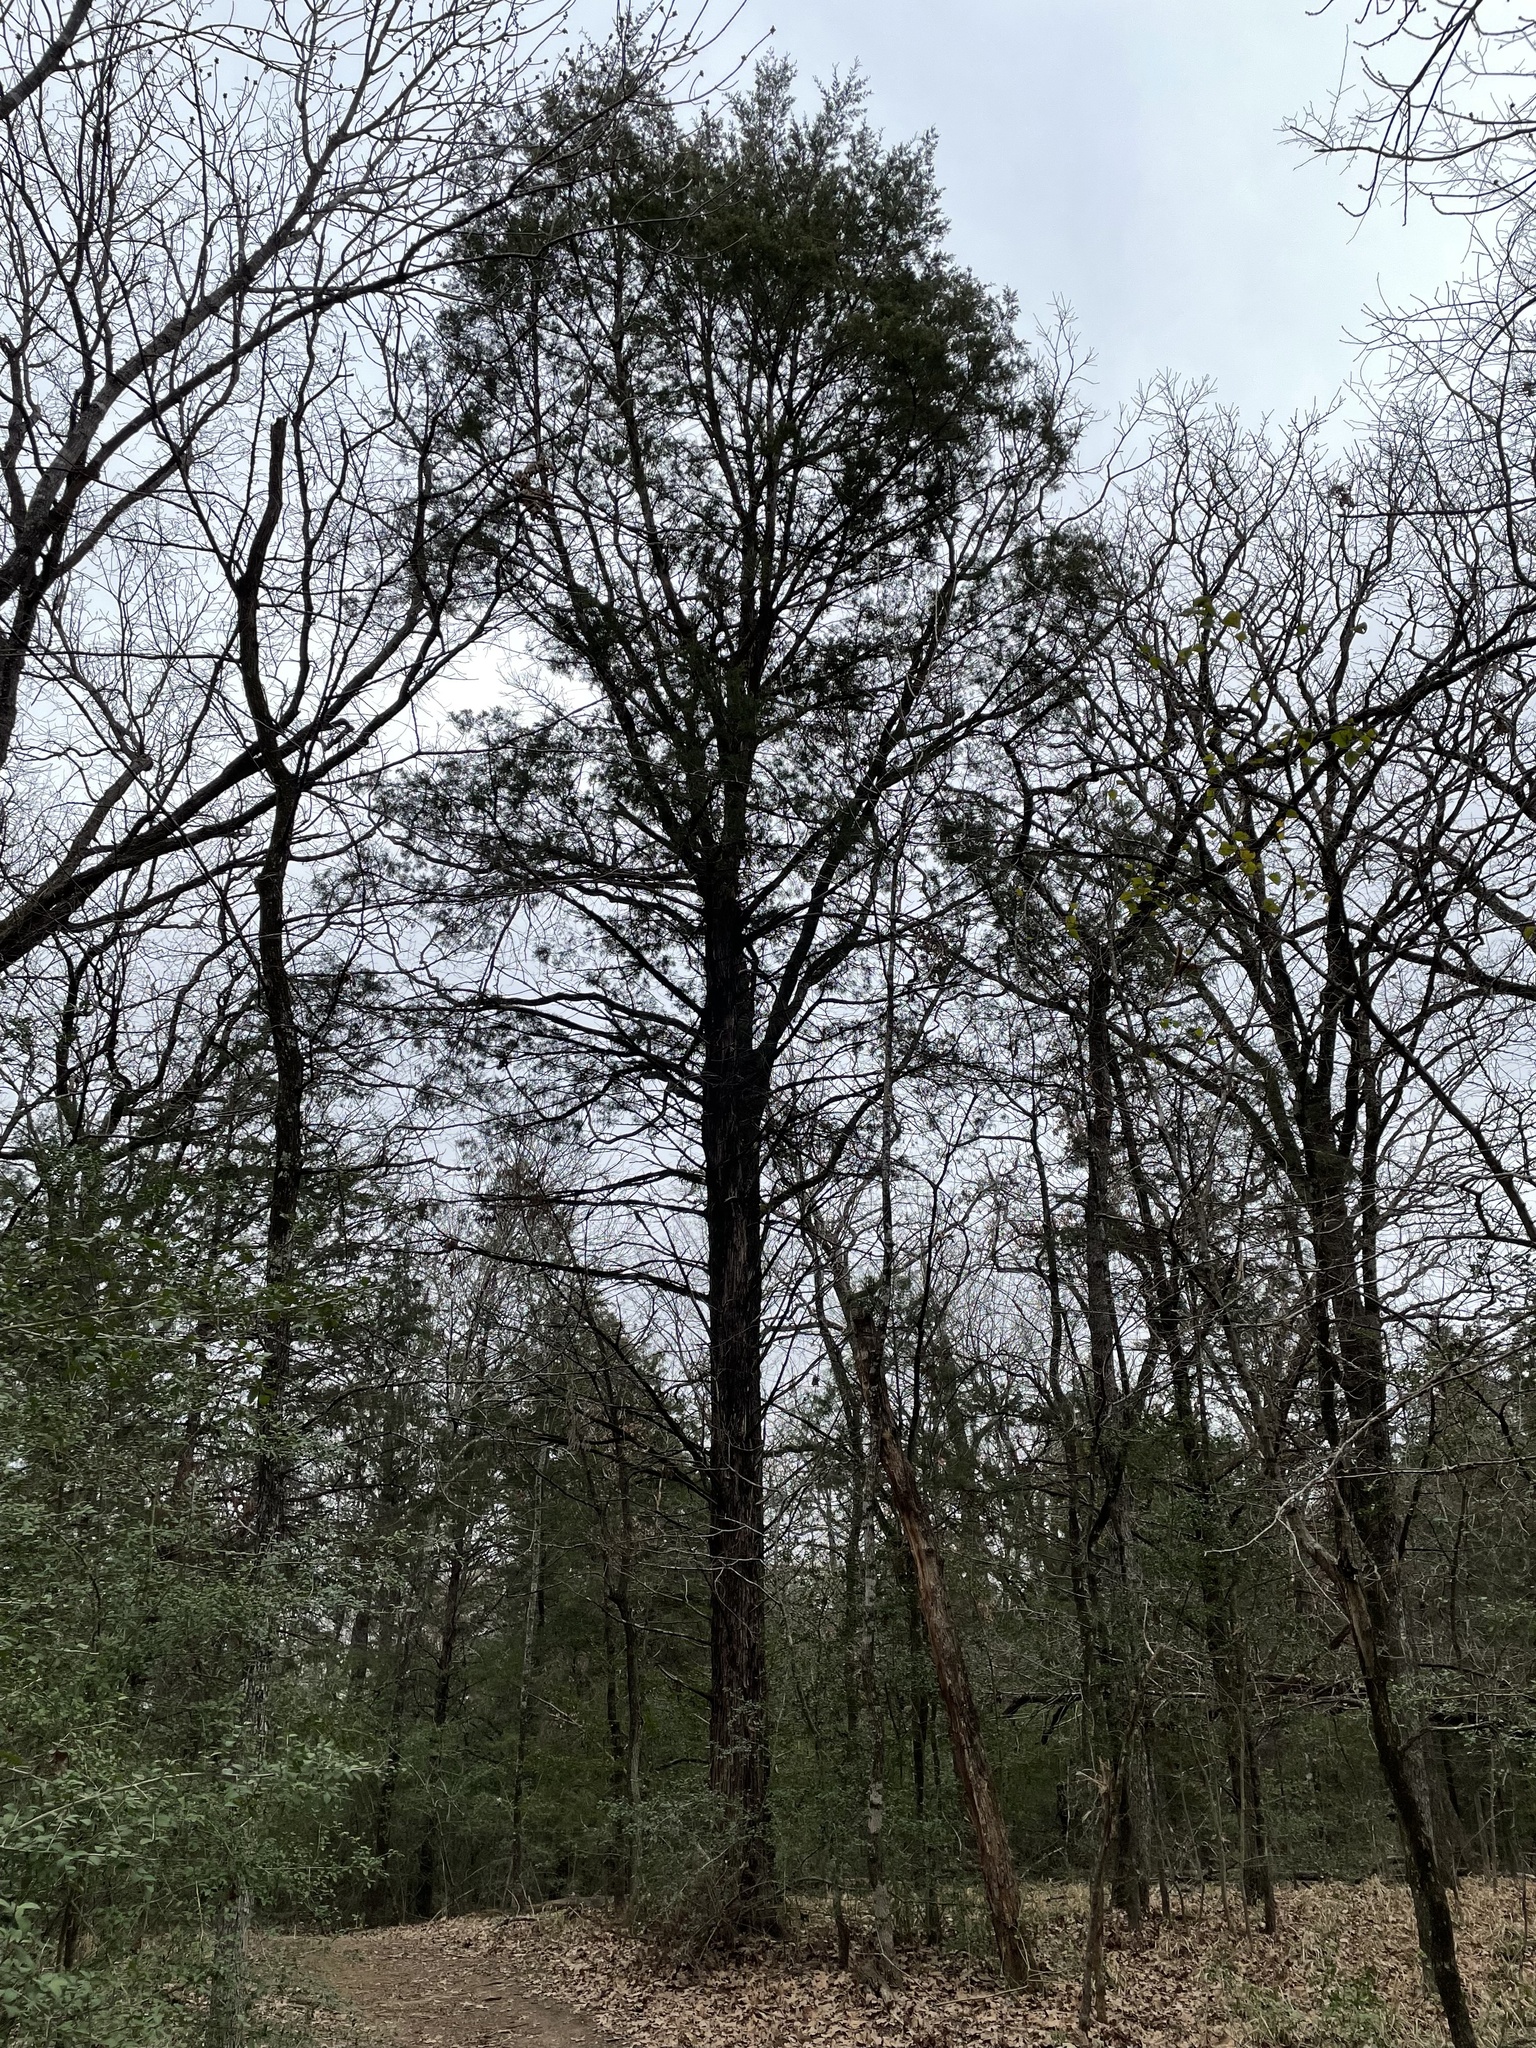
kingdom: Plantae
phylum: Tracheophyta
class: Pinopsida
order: Pinales
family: Cupressaceae
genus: Juniperus
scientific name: Juniperus virginiana
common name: Red juniper
